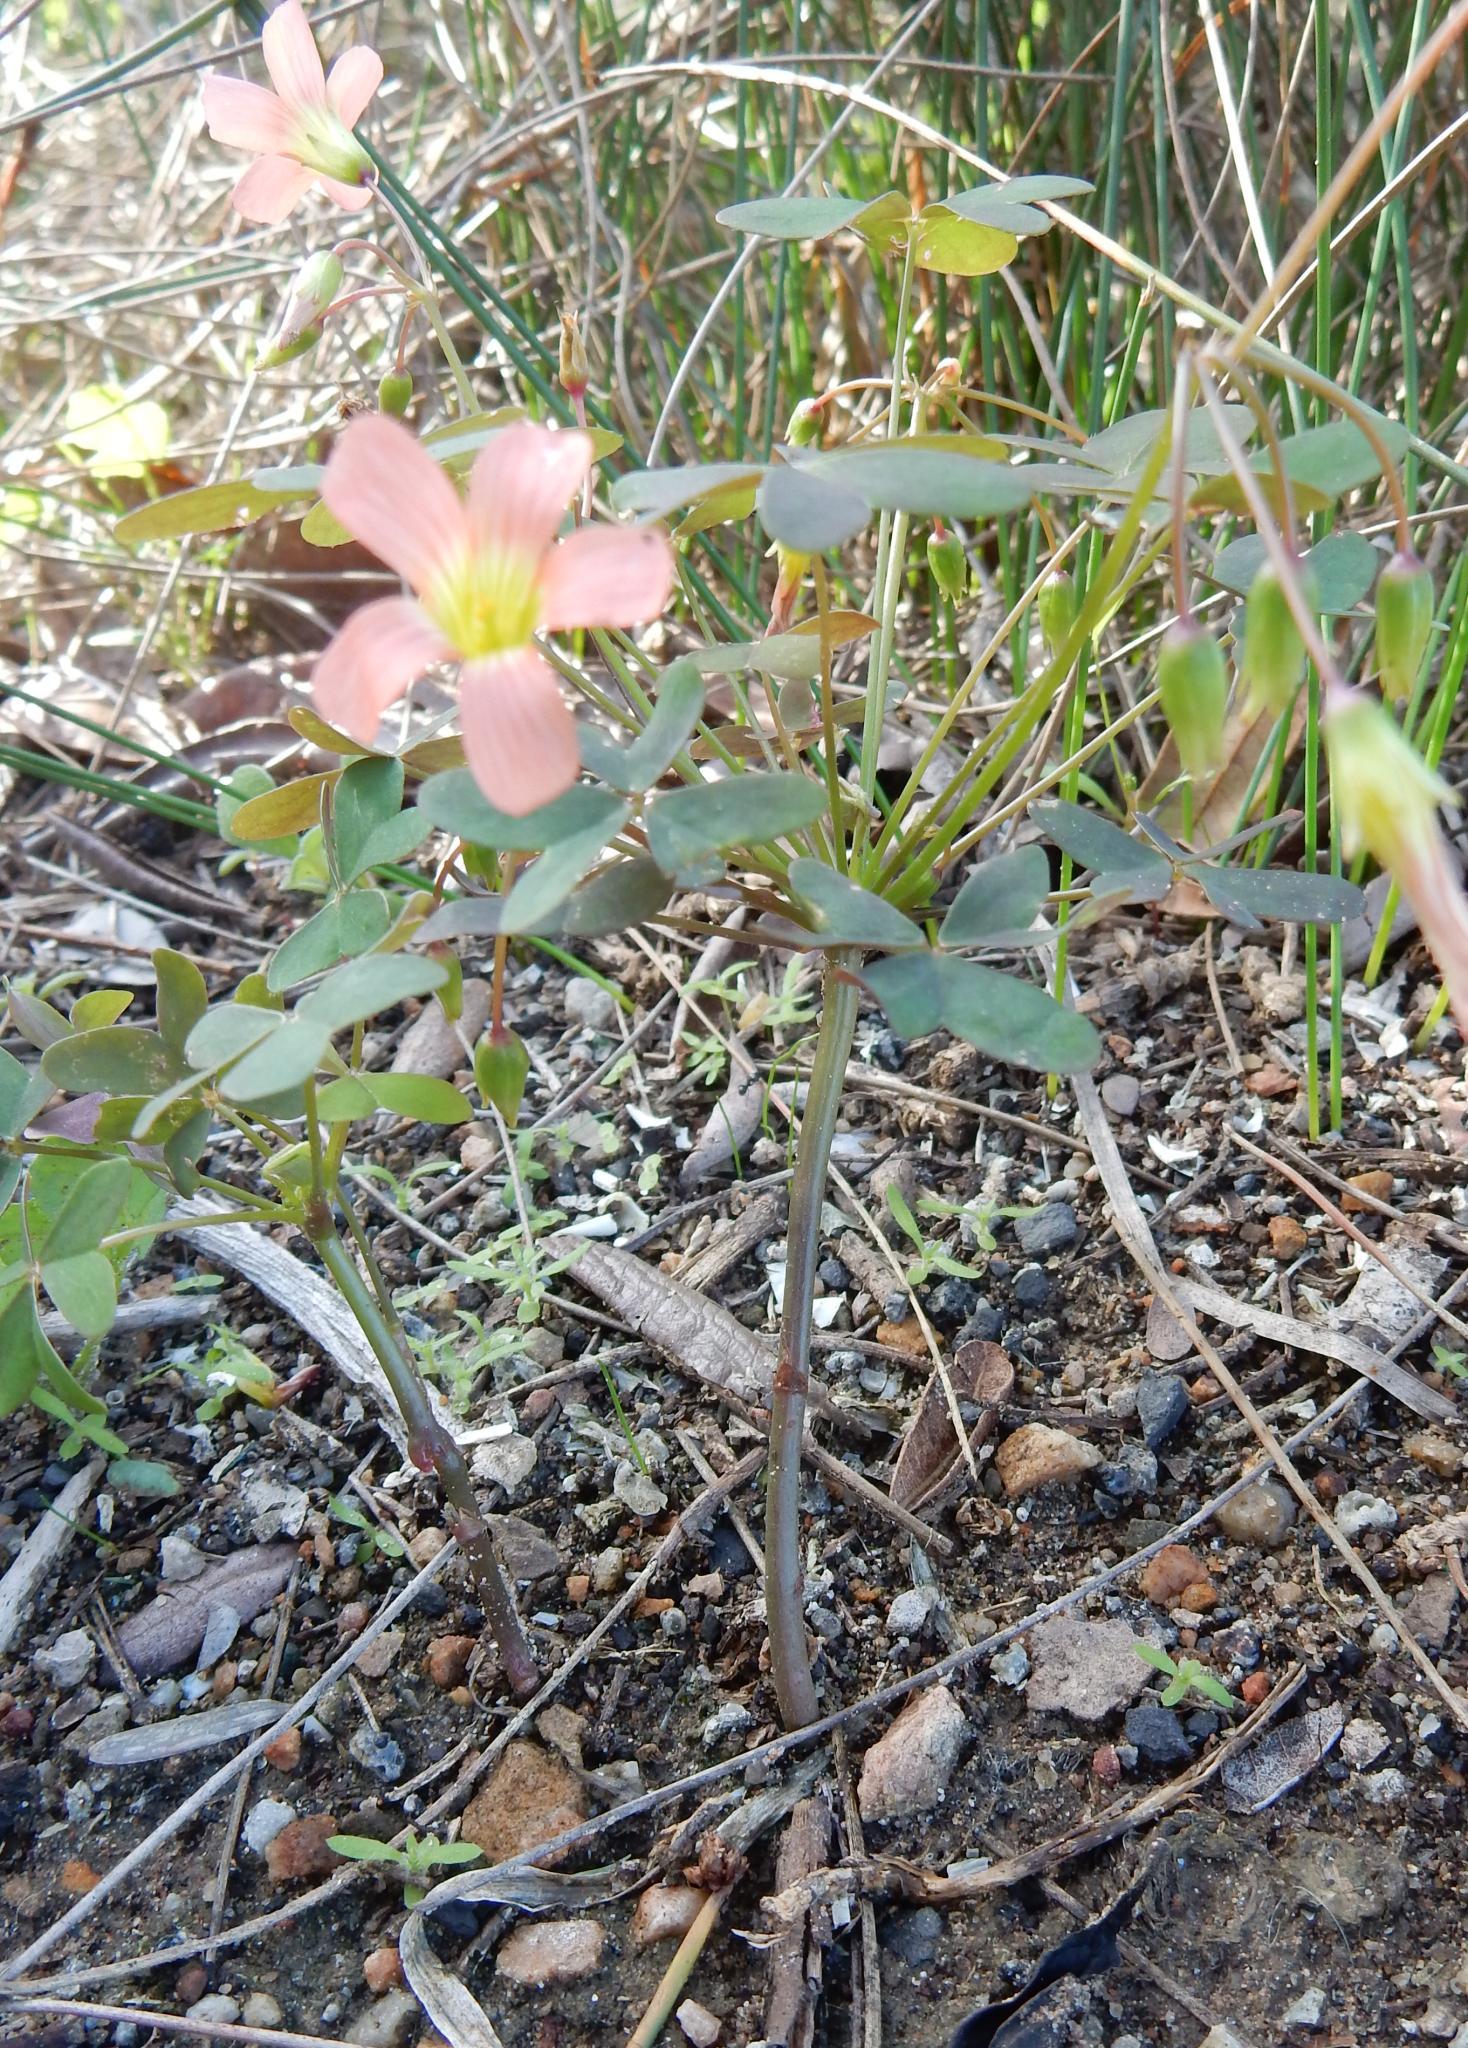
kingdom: Plantae
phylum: Tracheophyta
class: Magnoliopsida
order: Oxalidales
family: Oxalidaceae
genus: Oxalis
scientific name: Oxalis stenorhyncha
